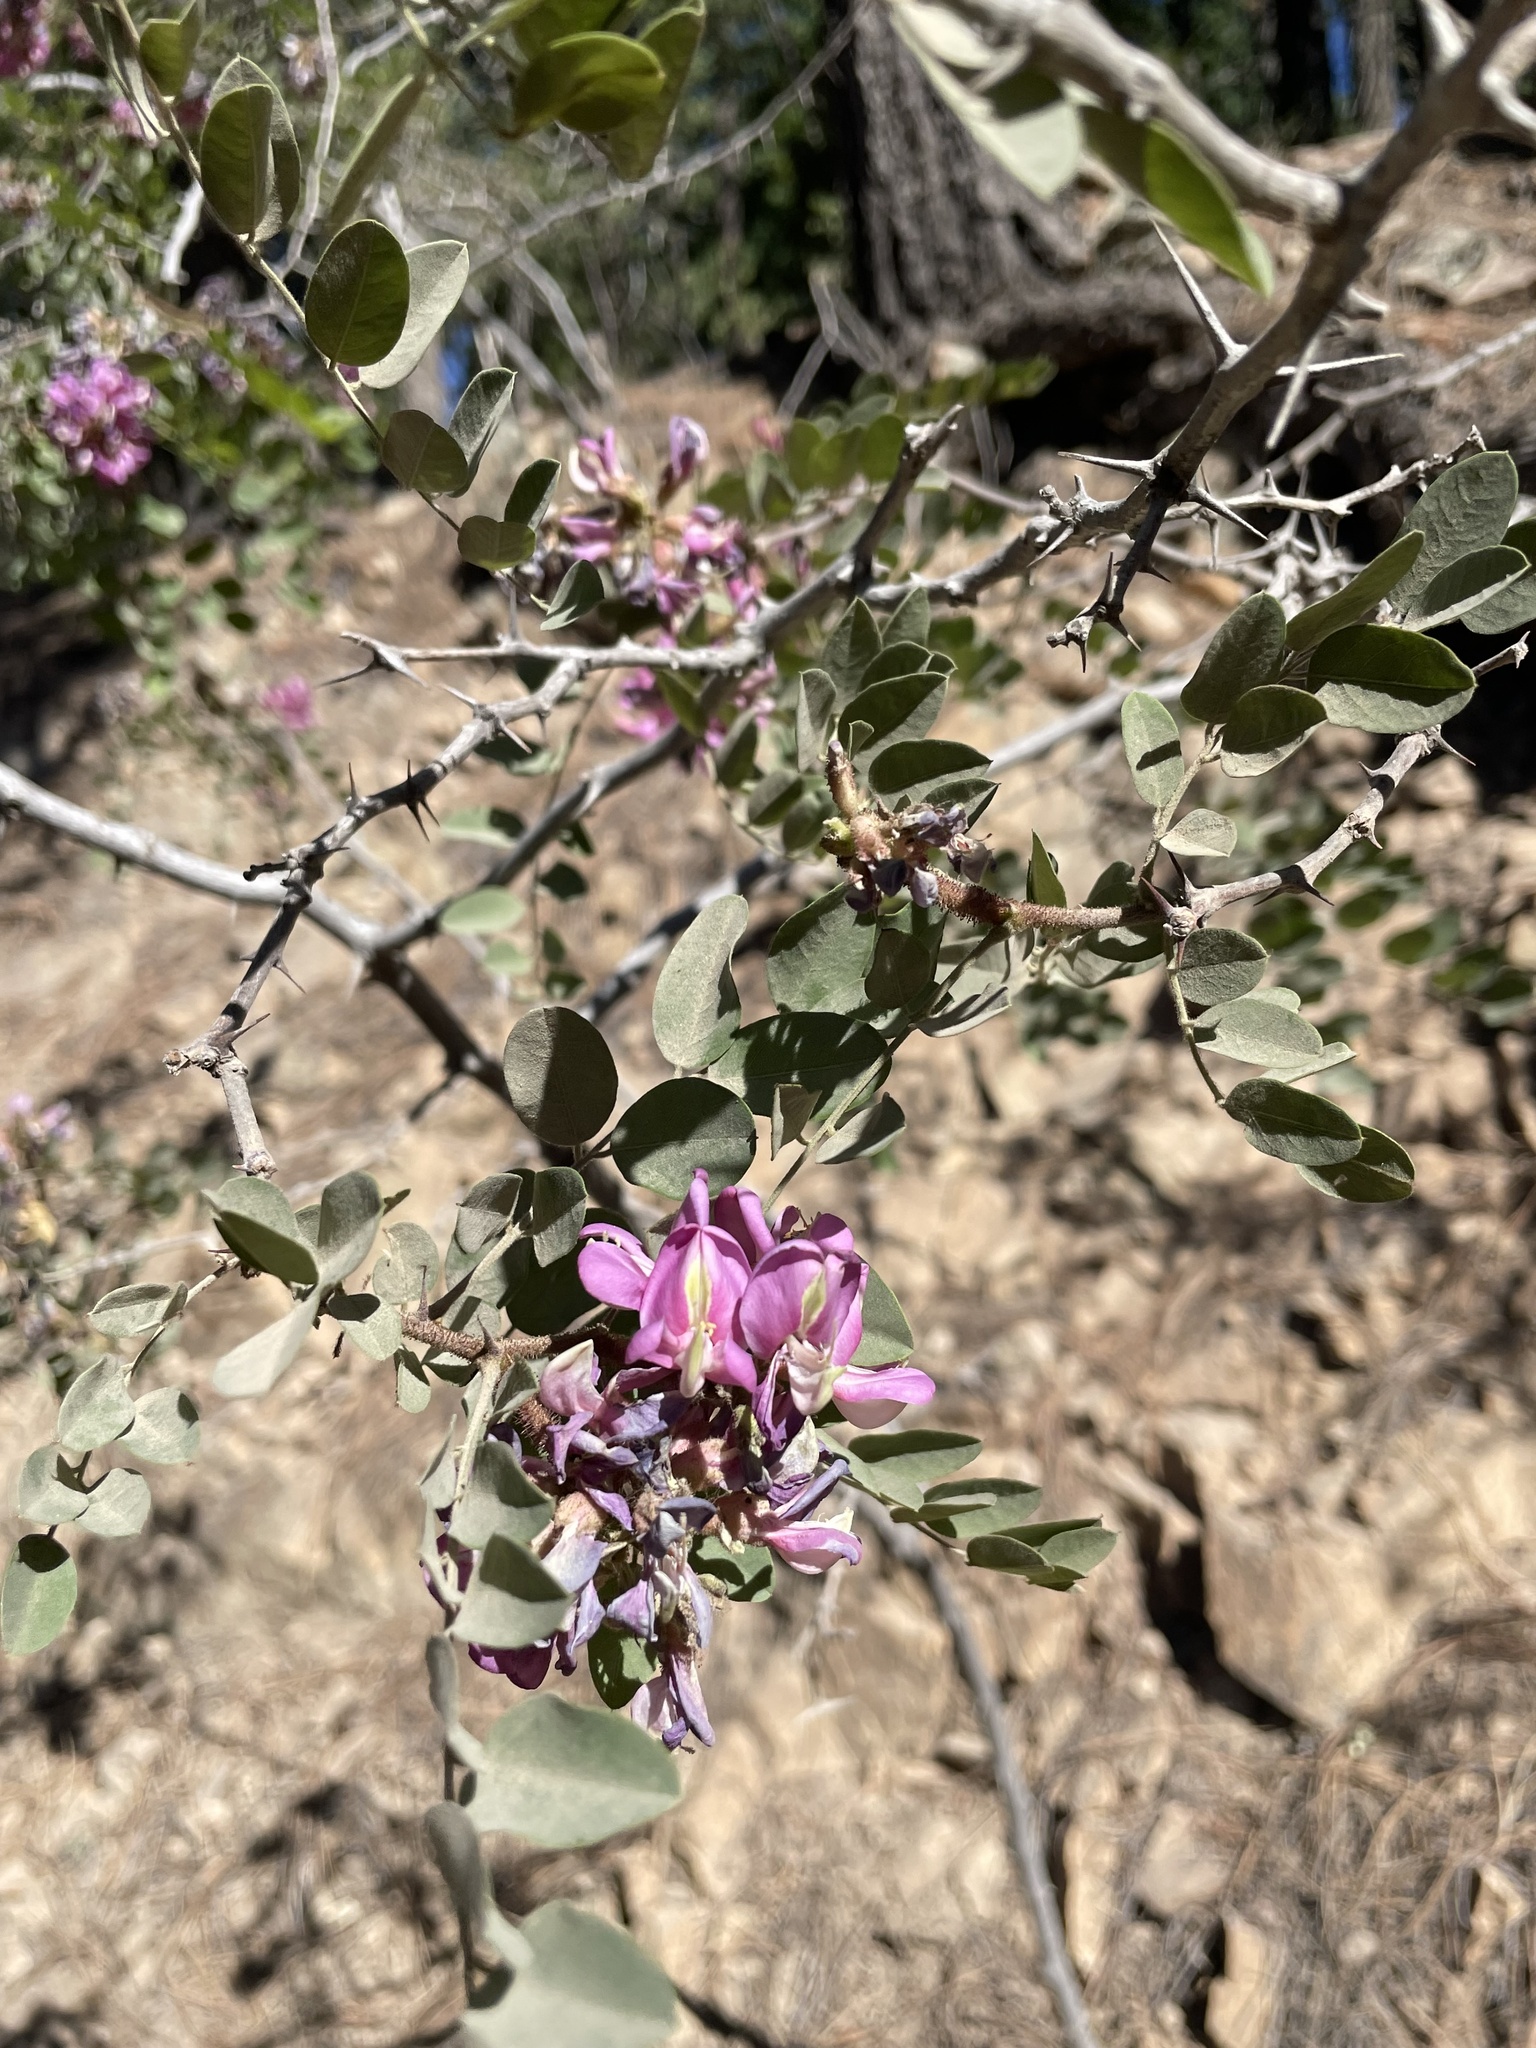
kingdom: Plantae
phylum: Tracheophyta
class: Magnoliopsida
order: Fabales
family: Fabaceae
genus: Robinia
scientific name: Robinia neomexicana
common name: New mexico locust
